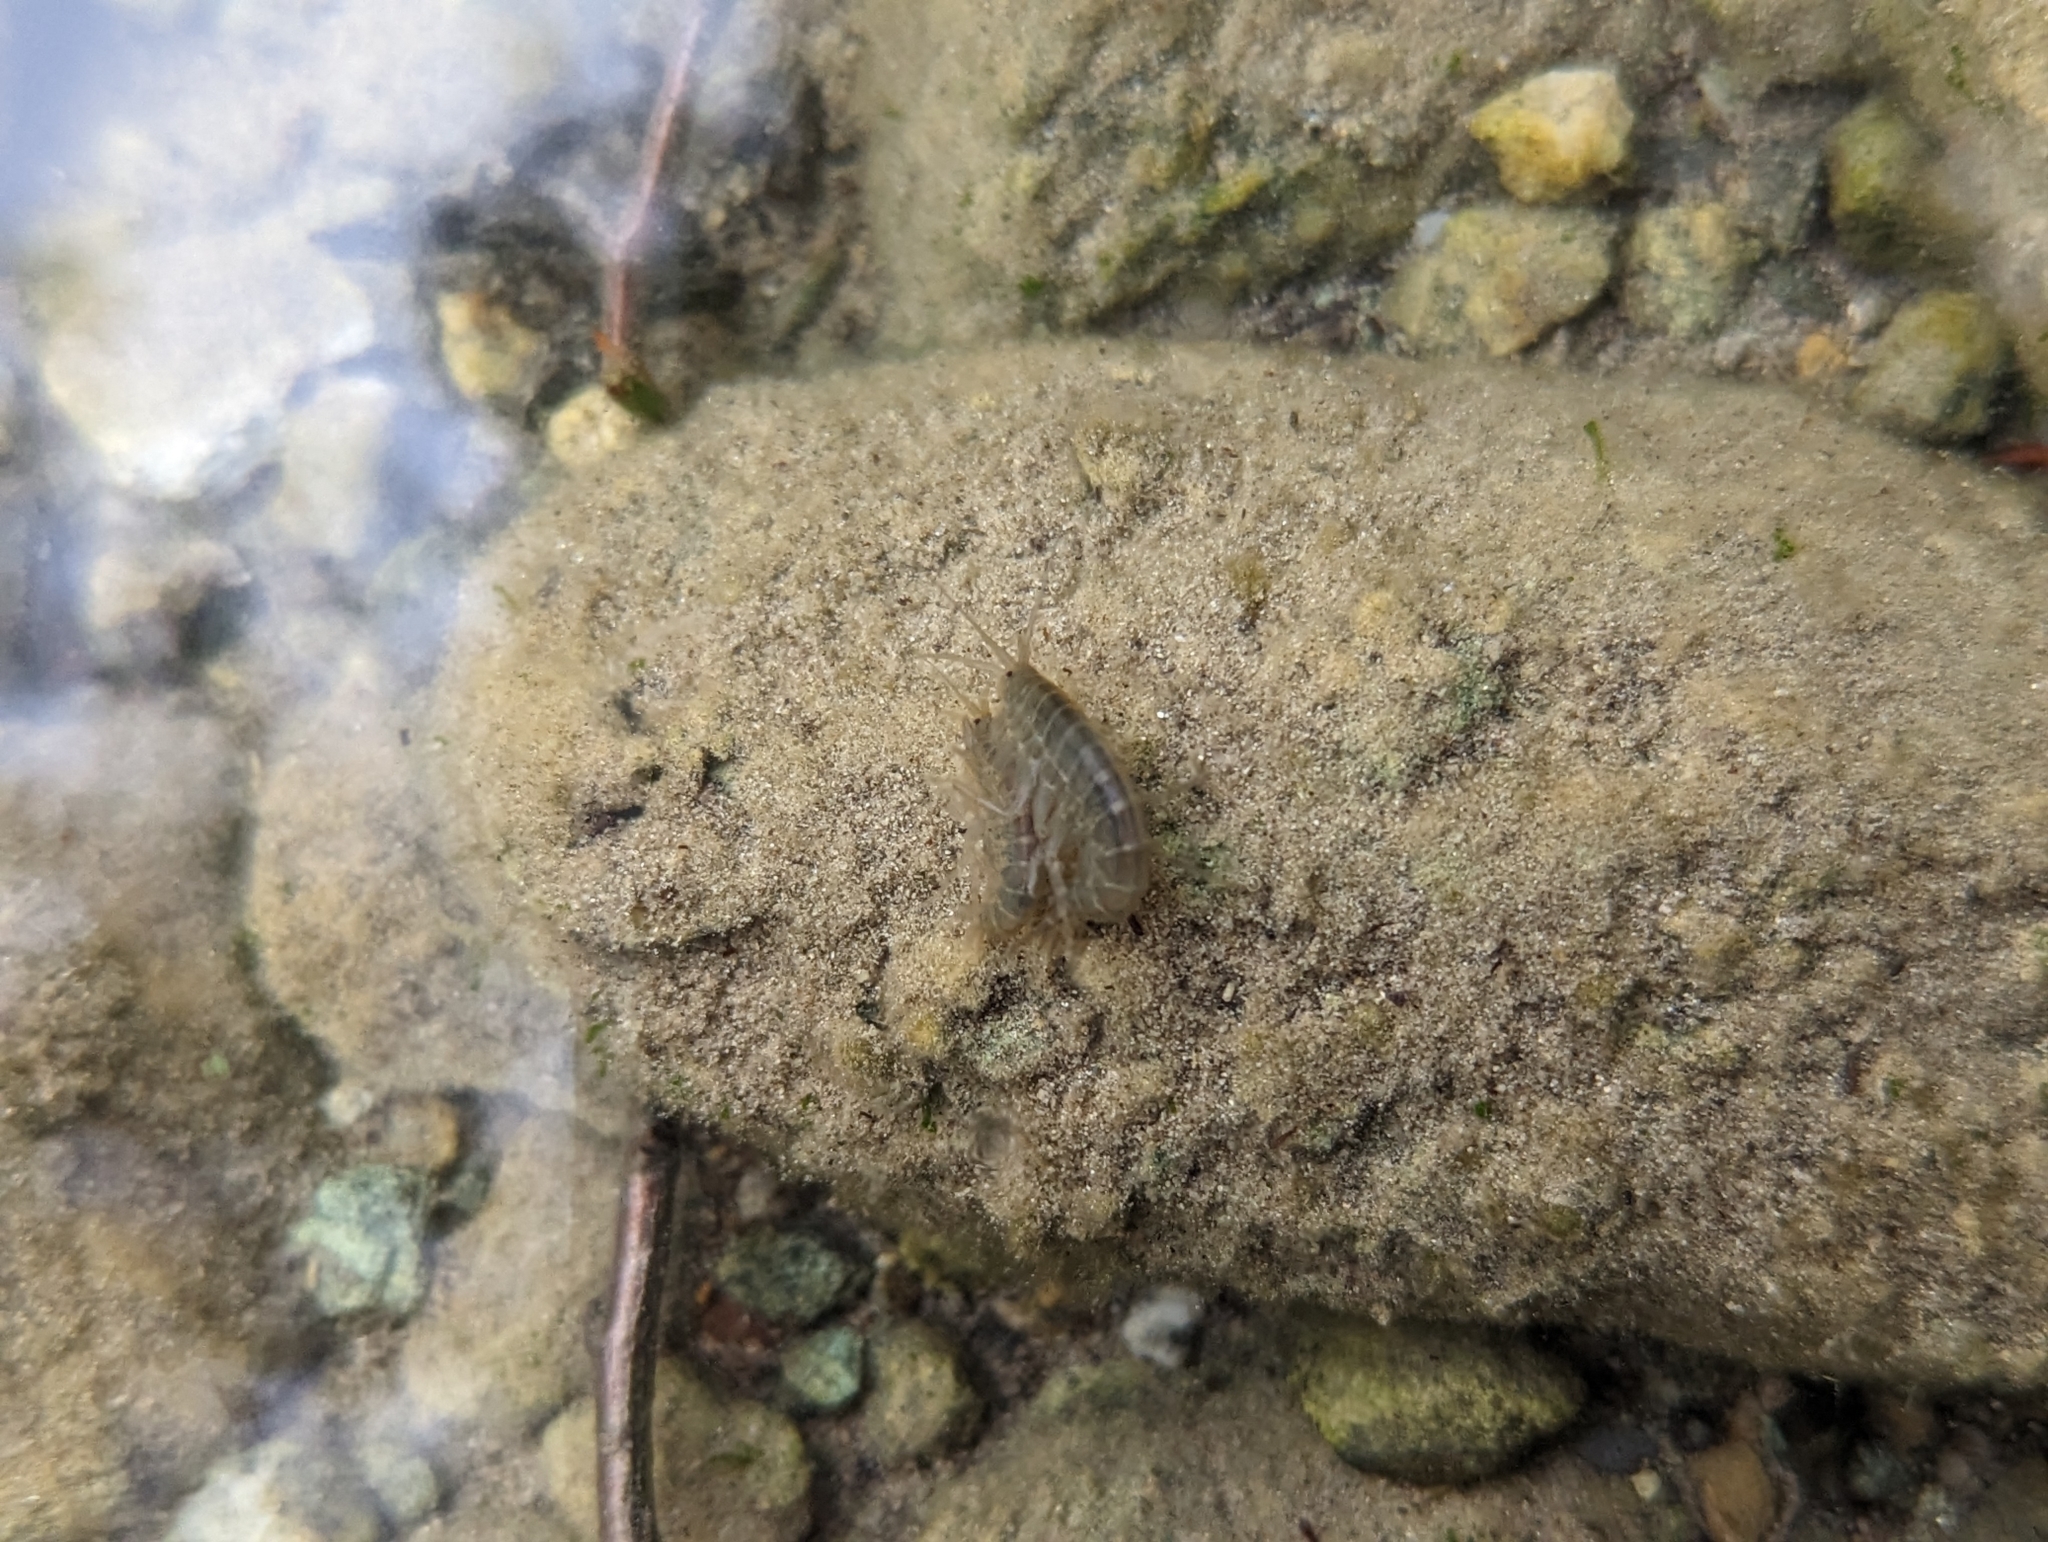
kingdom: Animalia
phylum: Arthropoda
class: Malacostraca
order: Amphipoda
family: Gammaridae
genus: Gammarus
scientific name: Gammarus lacustris
